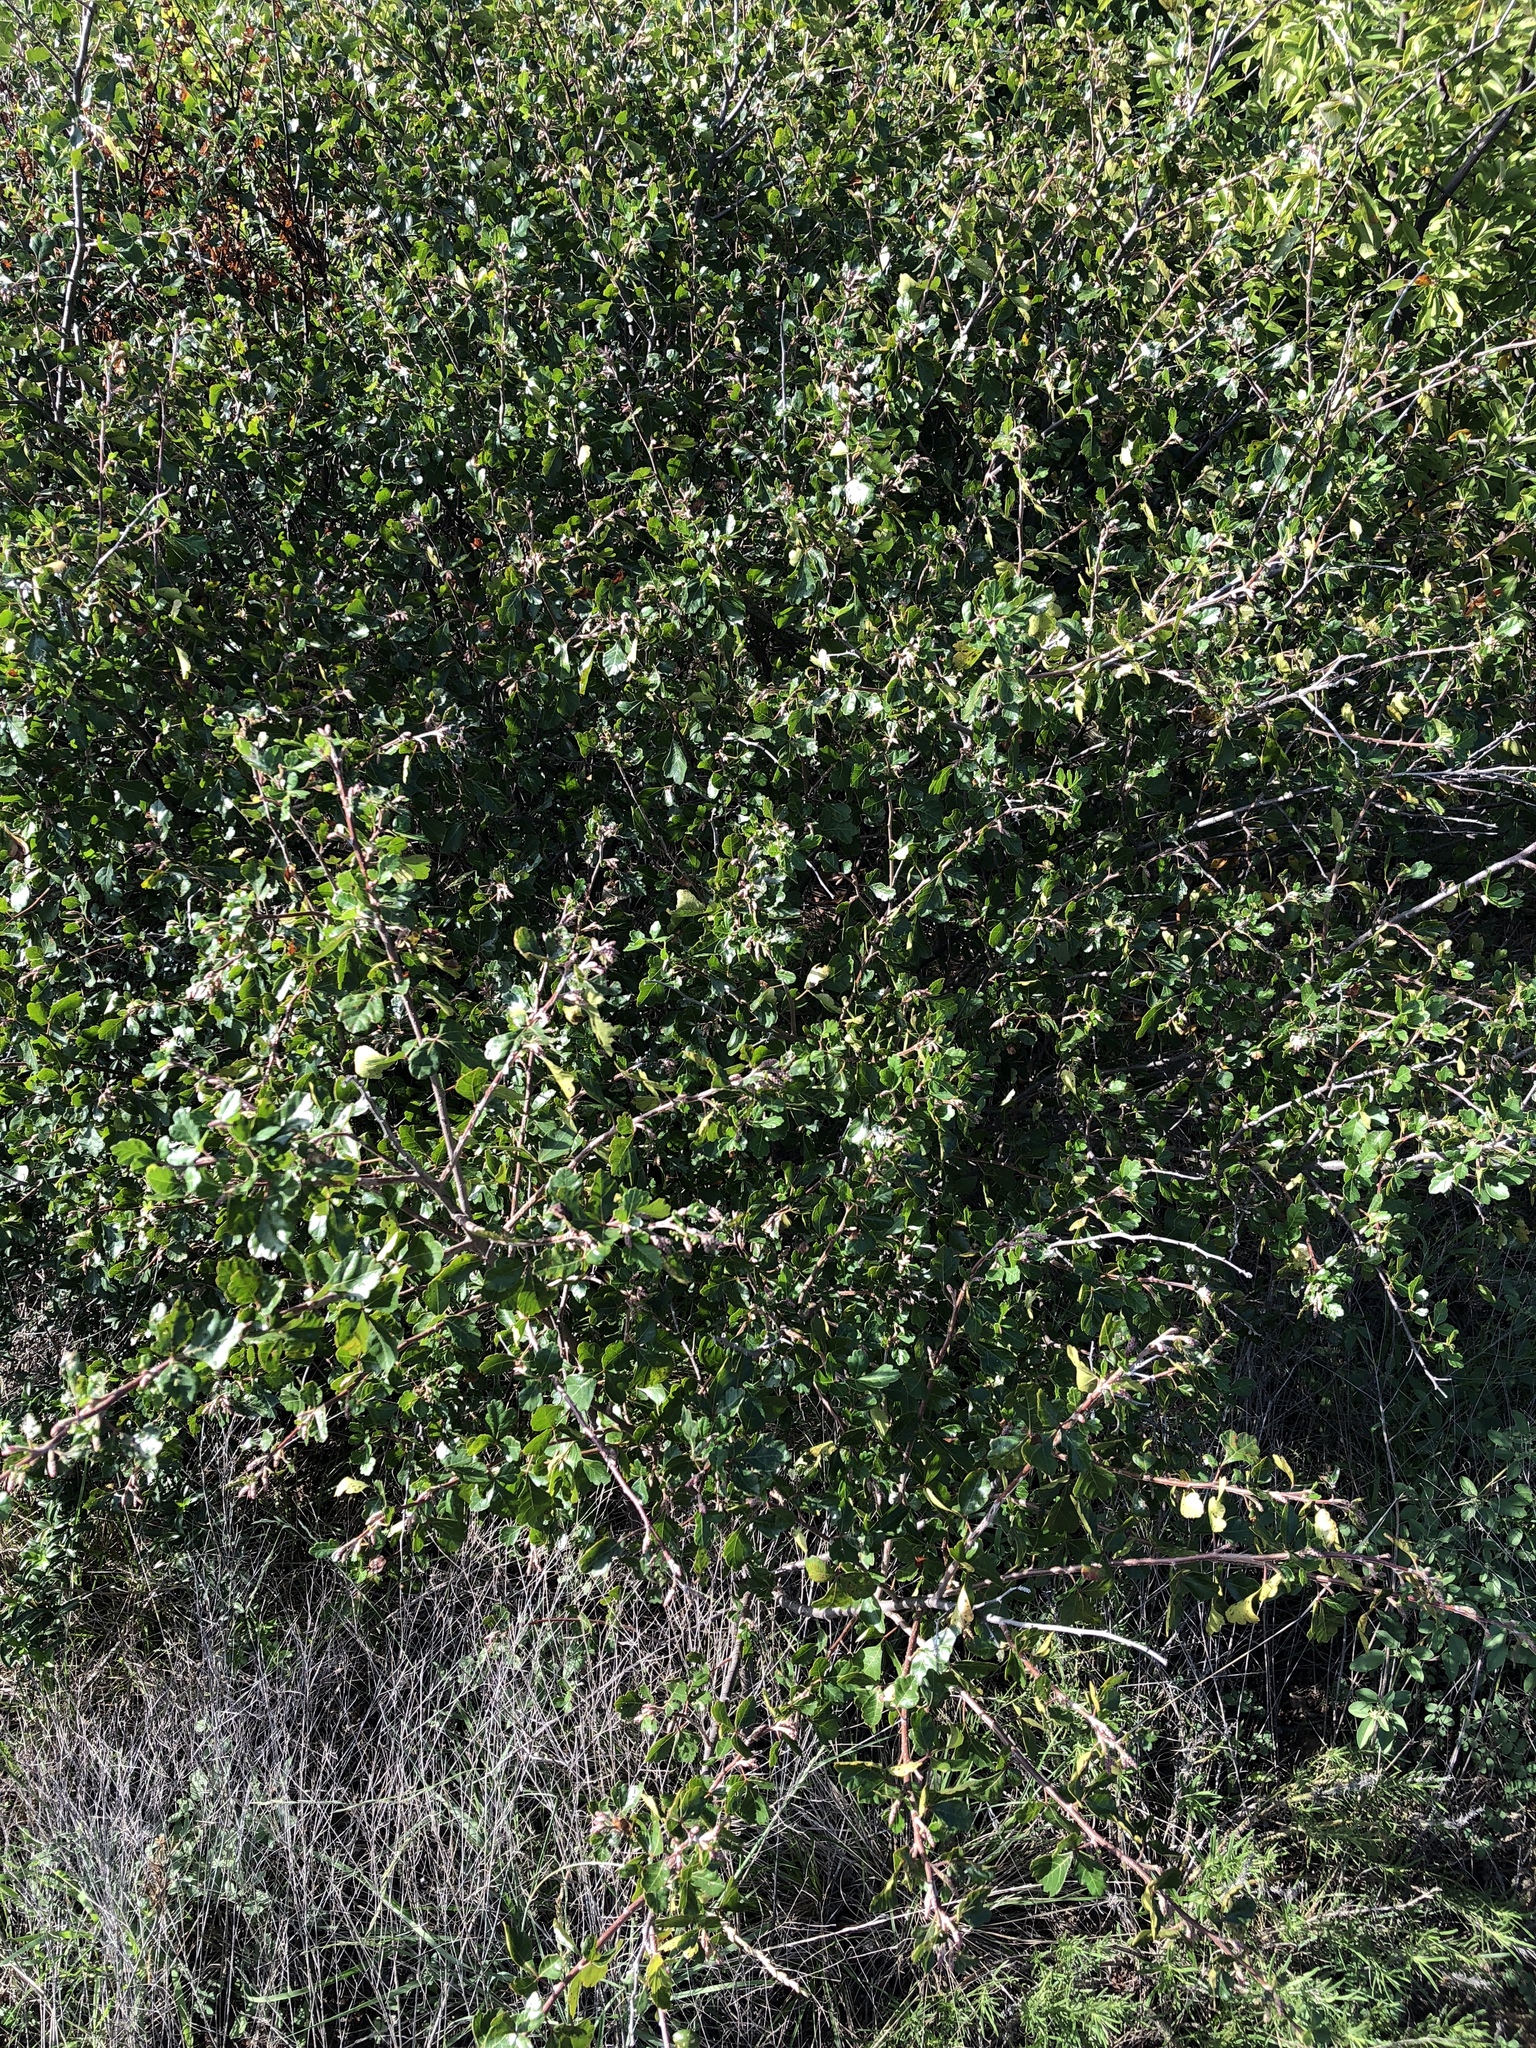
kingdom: Plantae
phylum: Tracheophyta
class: Magnoliopsida
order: Sapindales
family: Anacardiaceae
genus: Rhus
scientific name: Rhus aromatica
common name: Aromatic sumac
